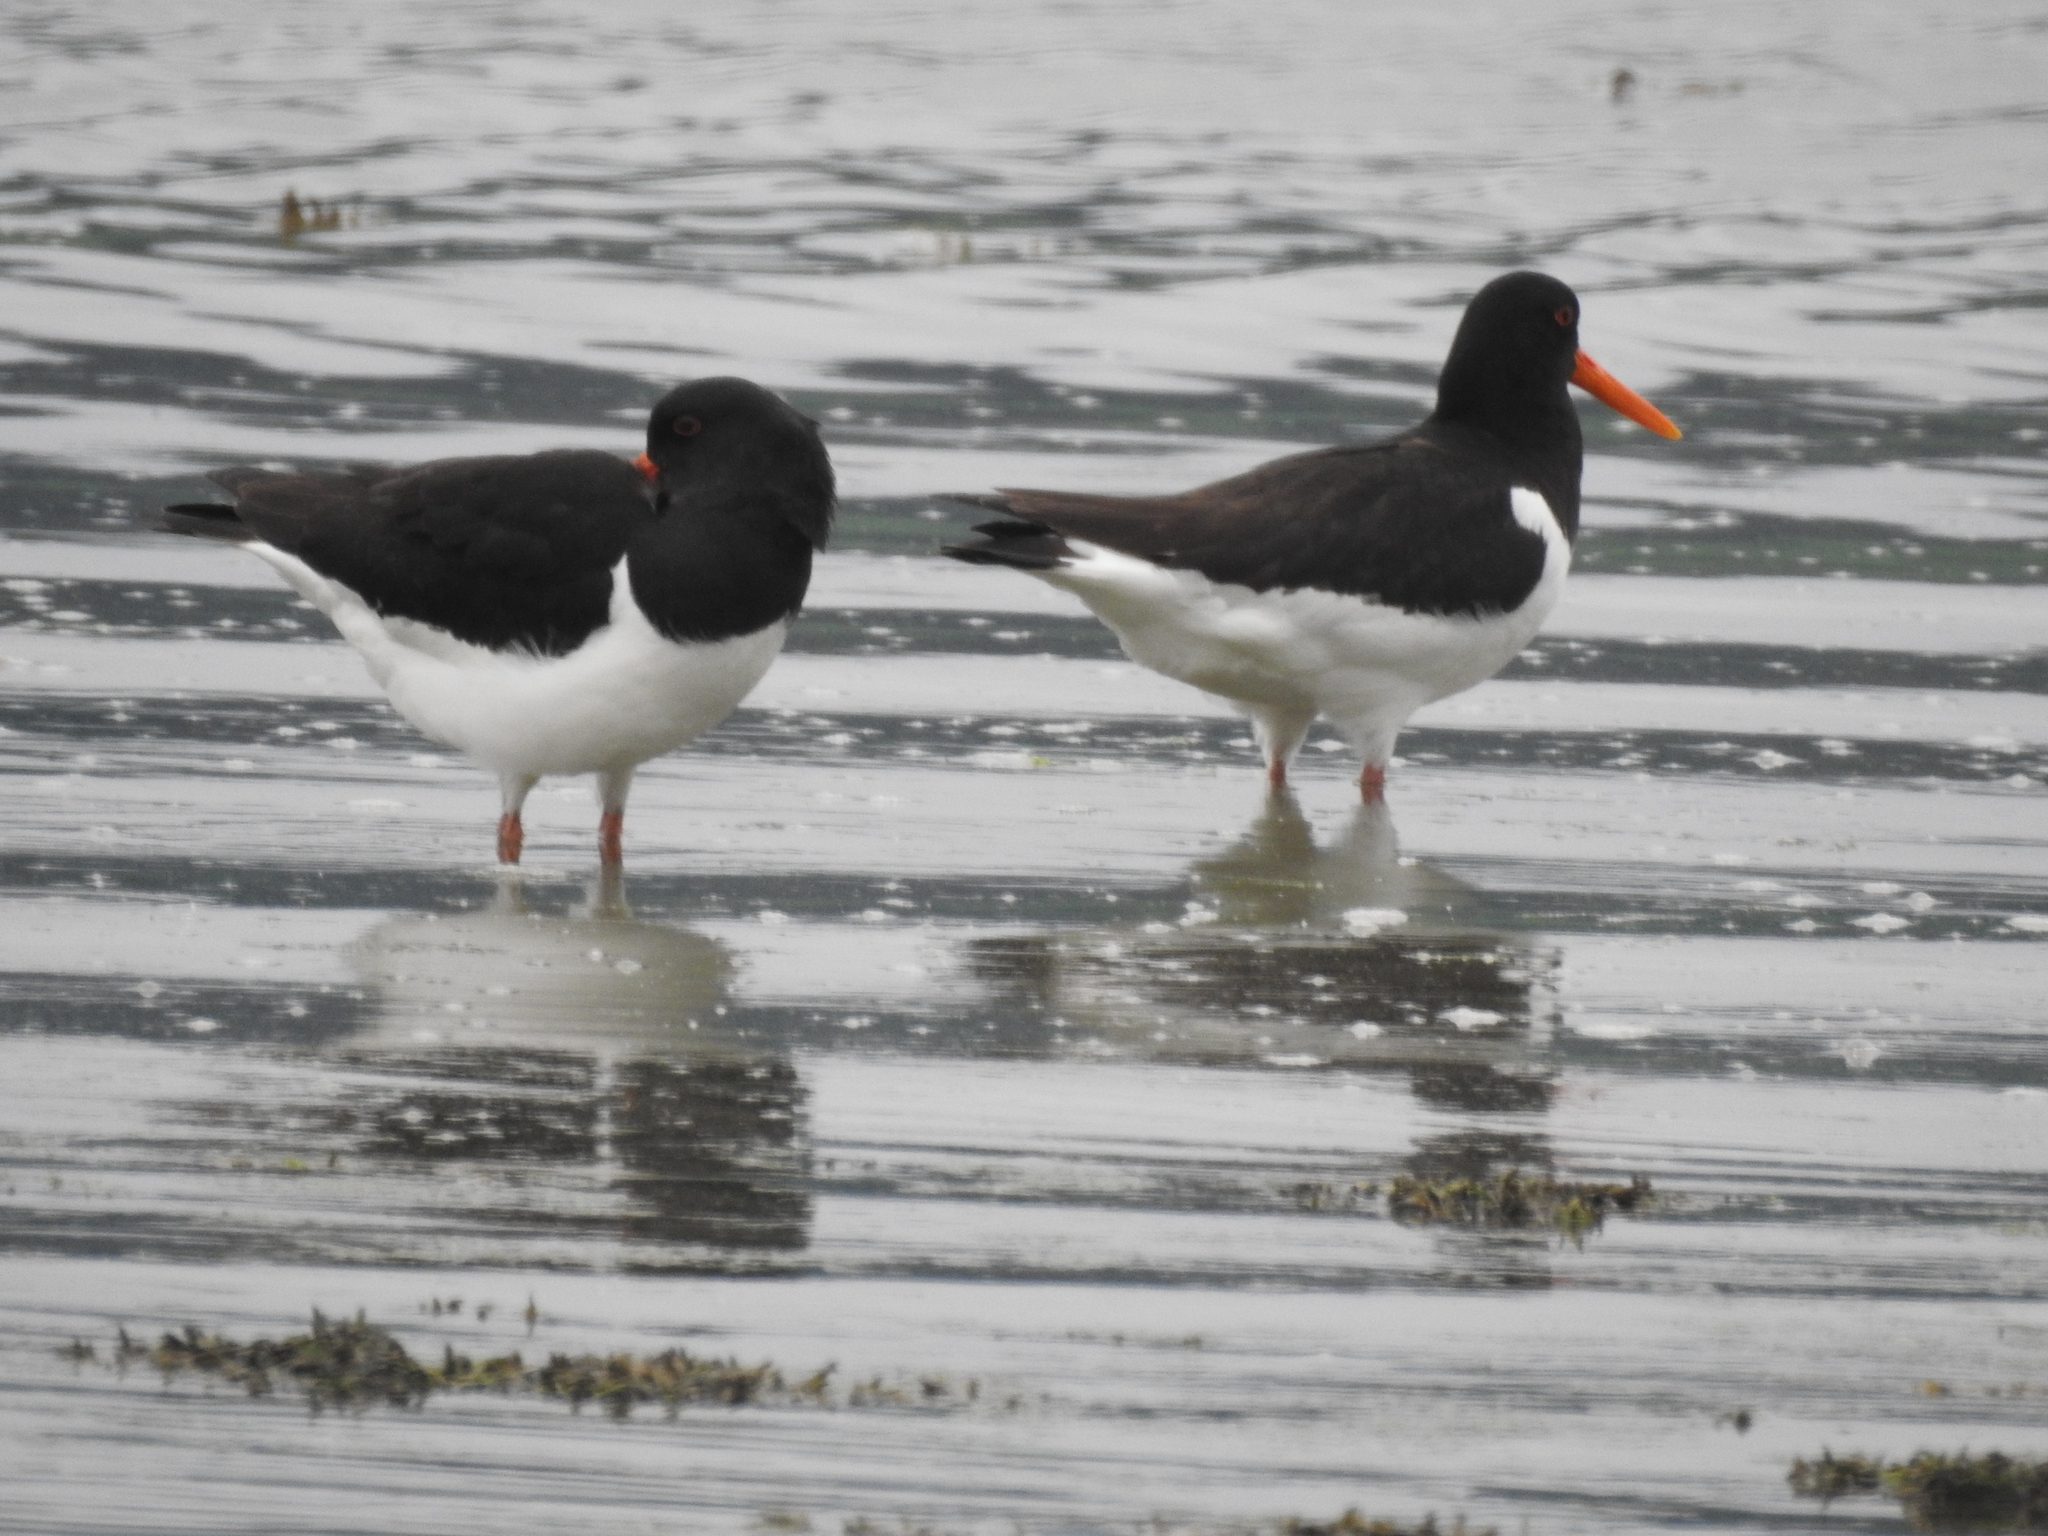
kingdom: Animalia
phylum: Chordata
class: Aves
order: Charadriiformes
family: Haematopodidae
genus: Haematopus
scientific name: Haematopus ostralegus
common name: Eurasian oystercatcher
